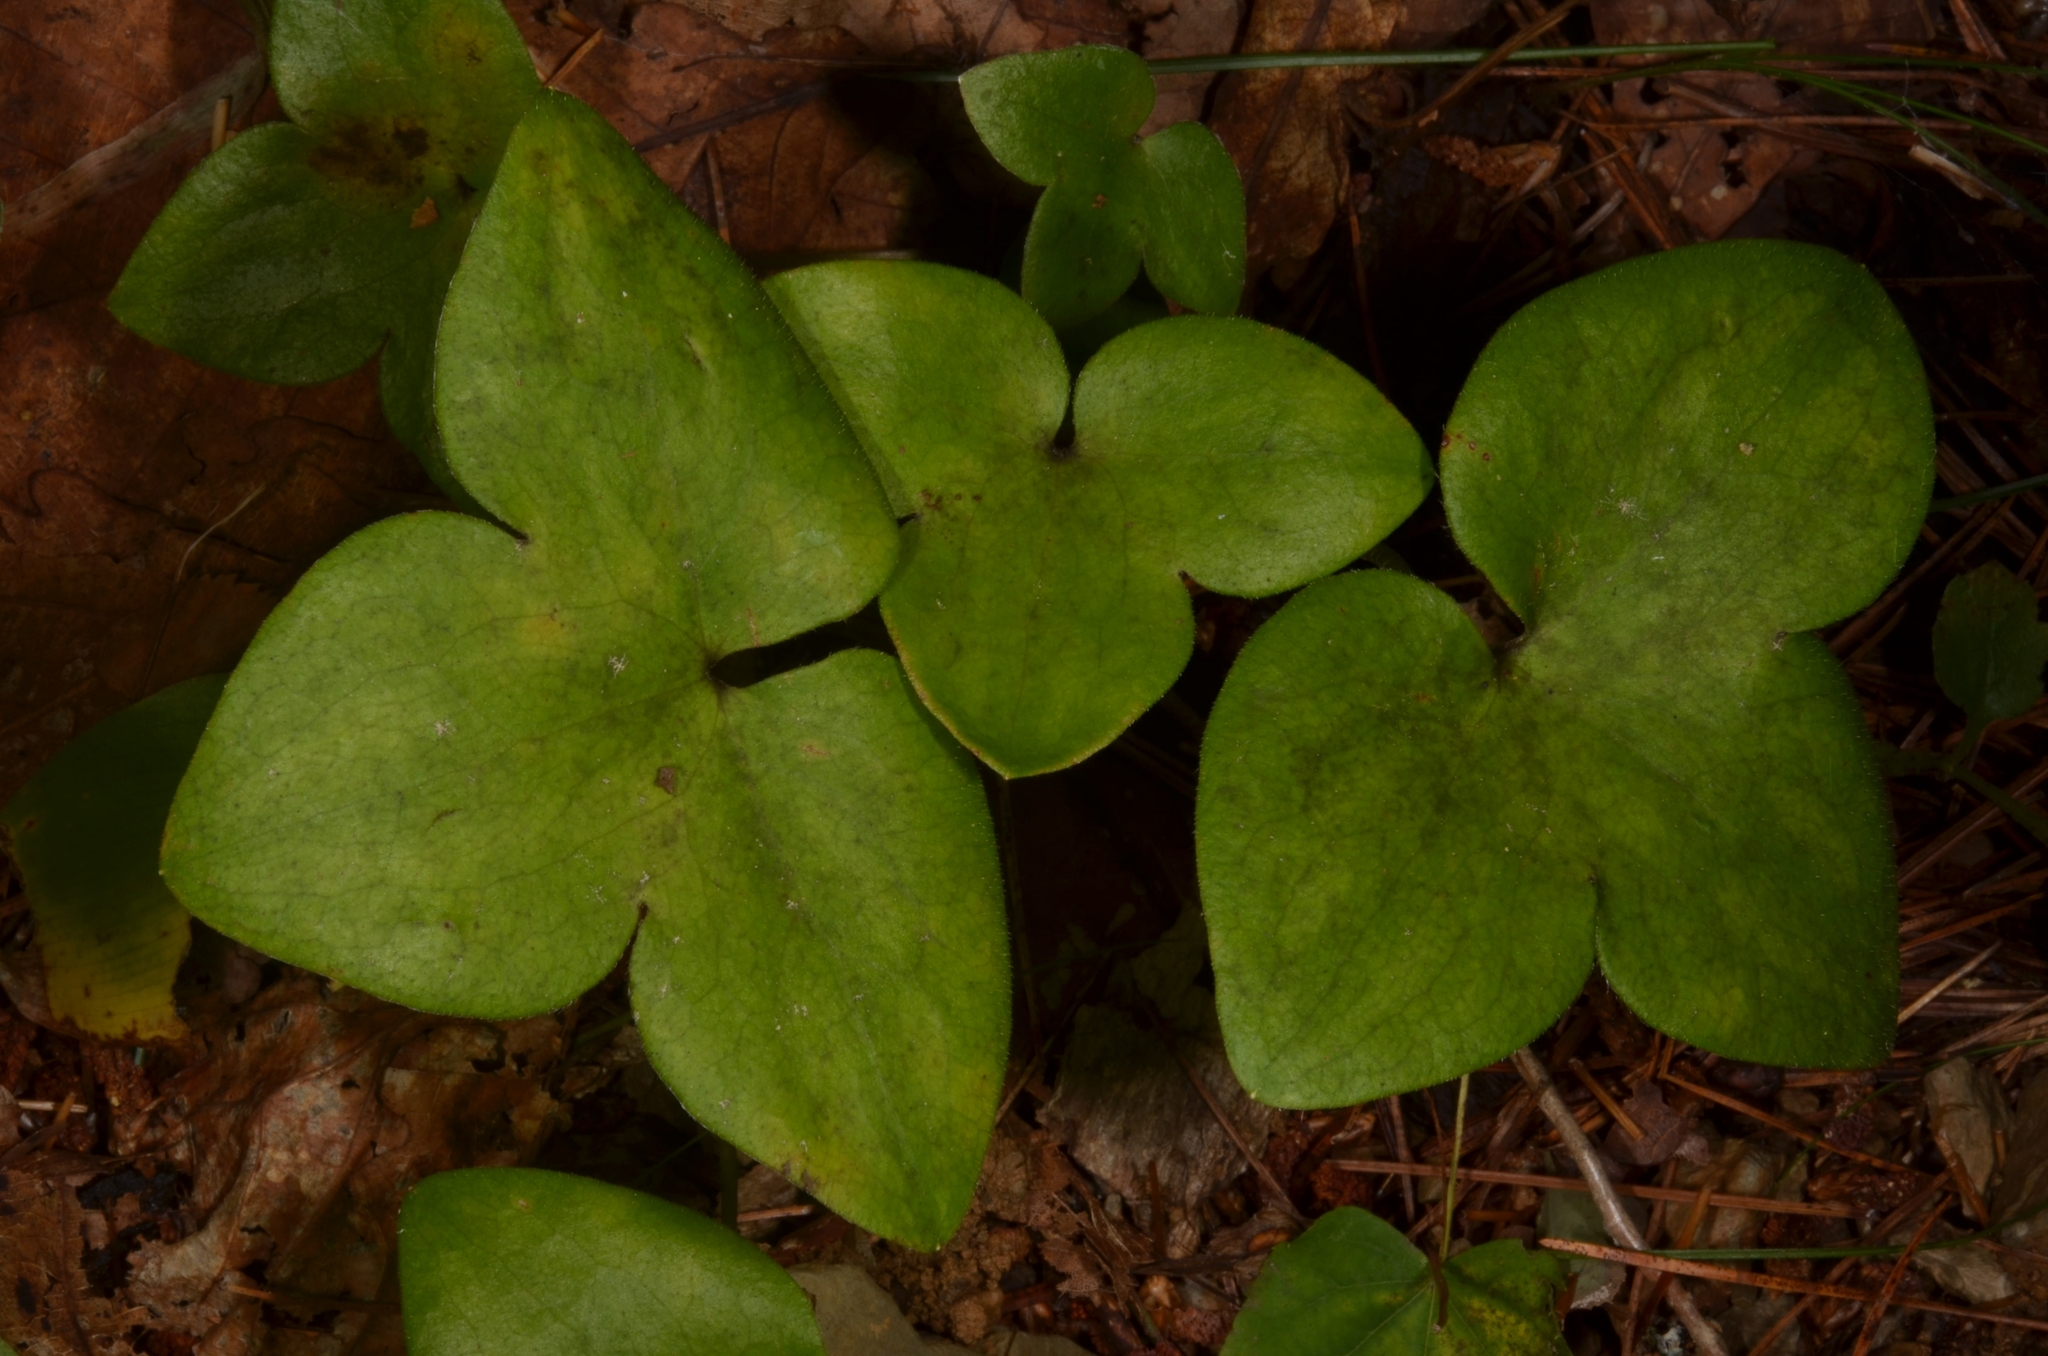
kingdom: Plantae
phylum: Tracheophyta
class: Magnoliopsida
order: Ranunculales
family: Ranunculaceae
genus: Hepatica
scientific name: Hepatica asiatica
